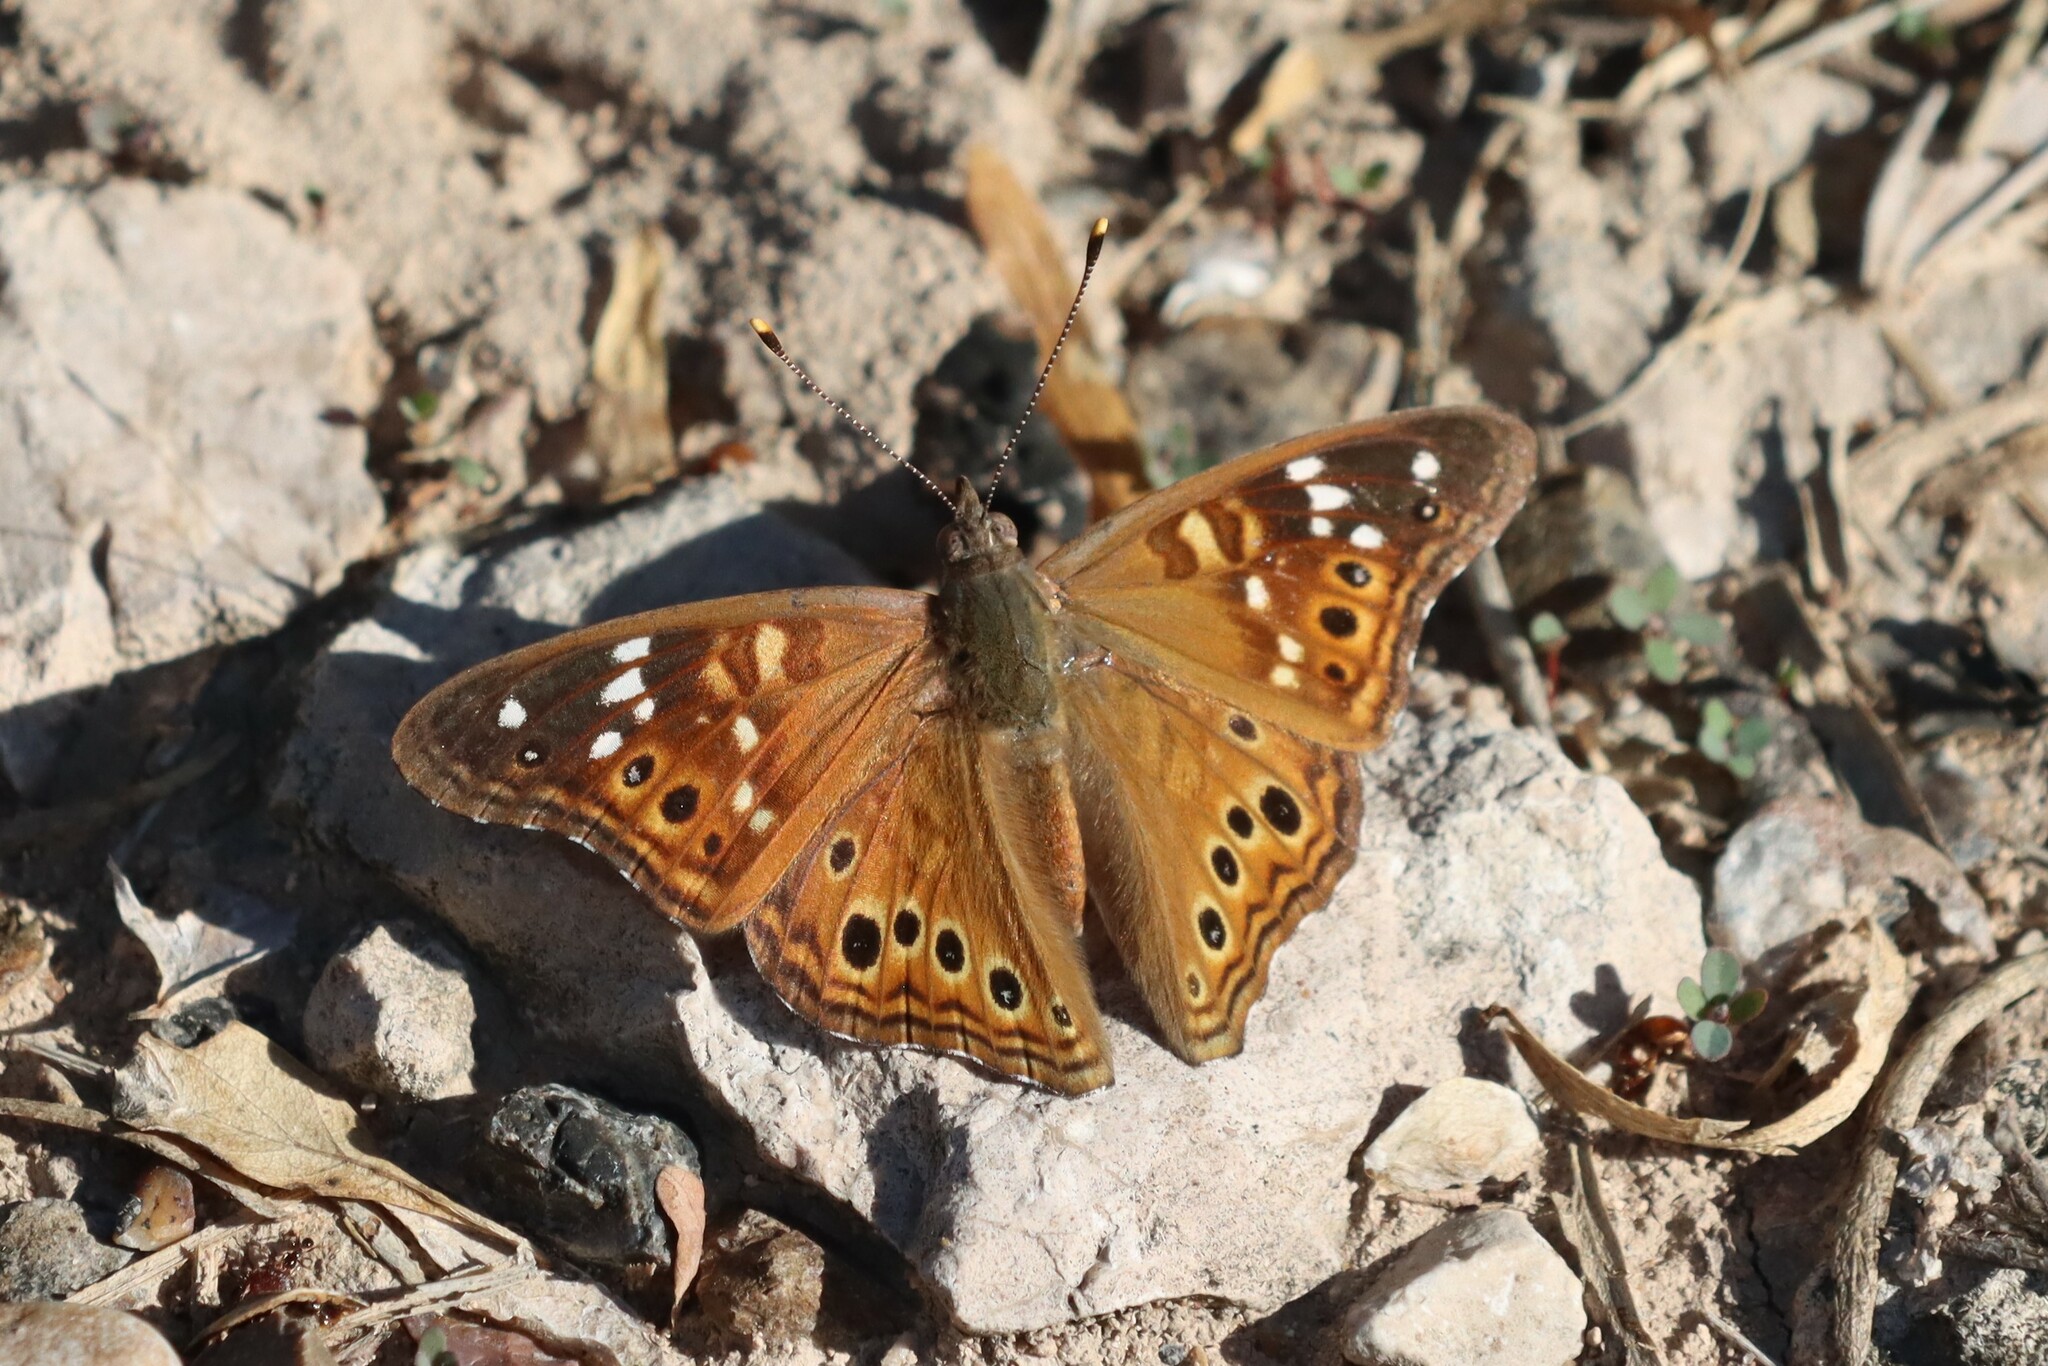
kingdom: Animalia
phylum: Arthropoda
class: Insecta
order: Lepidoptera
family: Nymphalidae
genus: Asterocampa
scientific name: Asterocampa leilia
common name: Empress leilia
